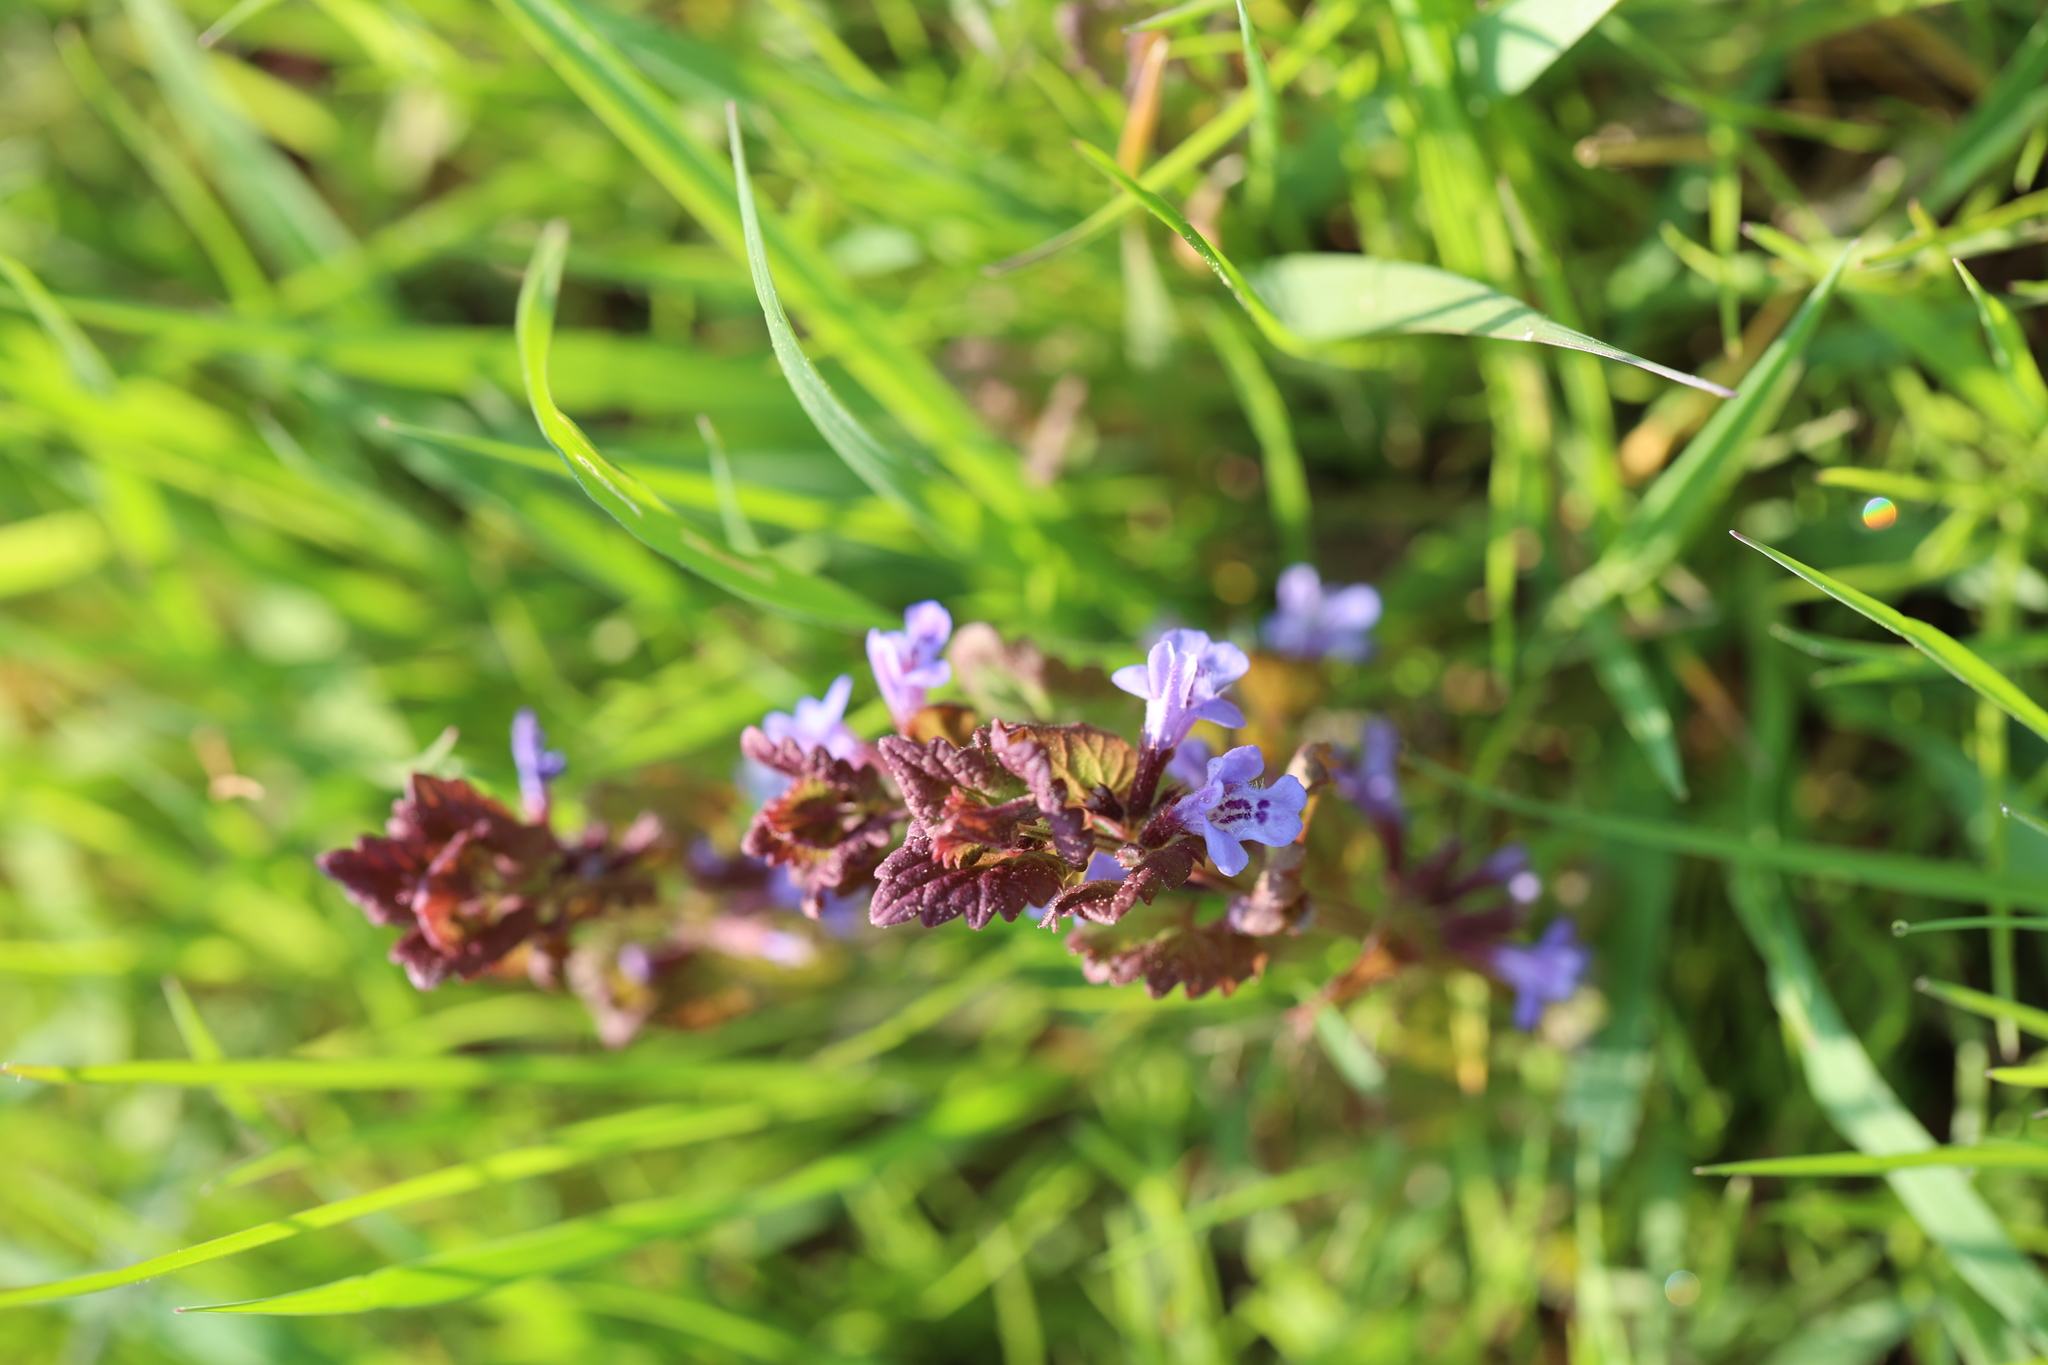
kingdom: Plantae
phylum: Tracheophyta
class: Magnoliopsida
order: Lamiales
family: Lamiaceae
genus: Glechoma
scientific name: Glechoma hederacea
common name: Ground ivy
